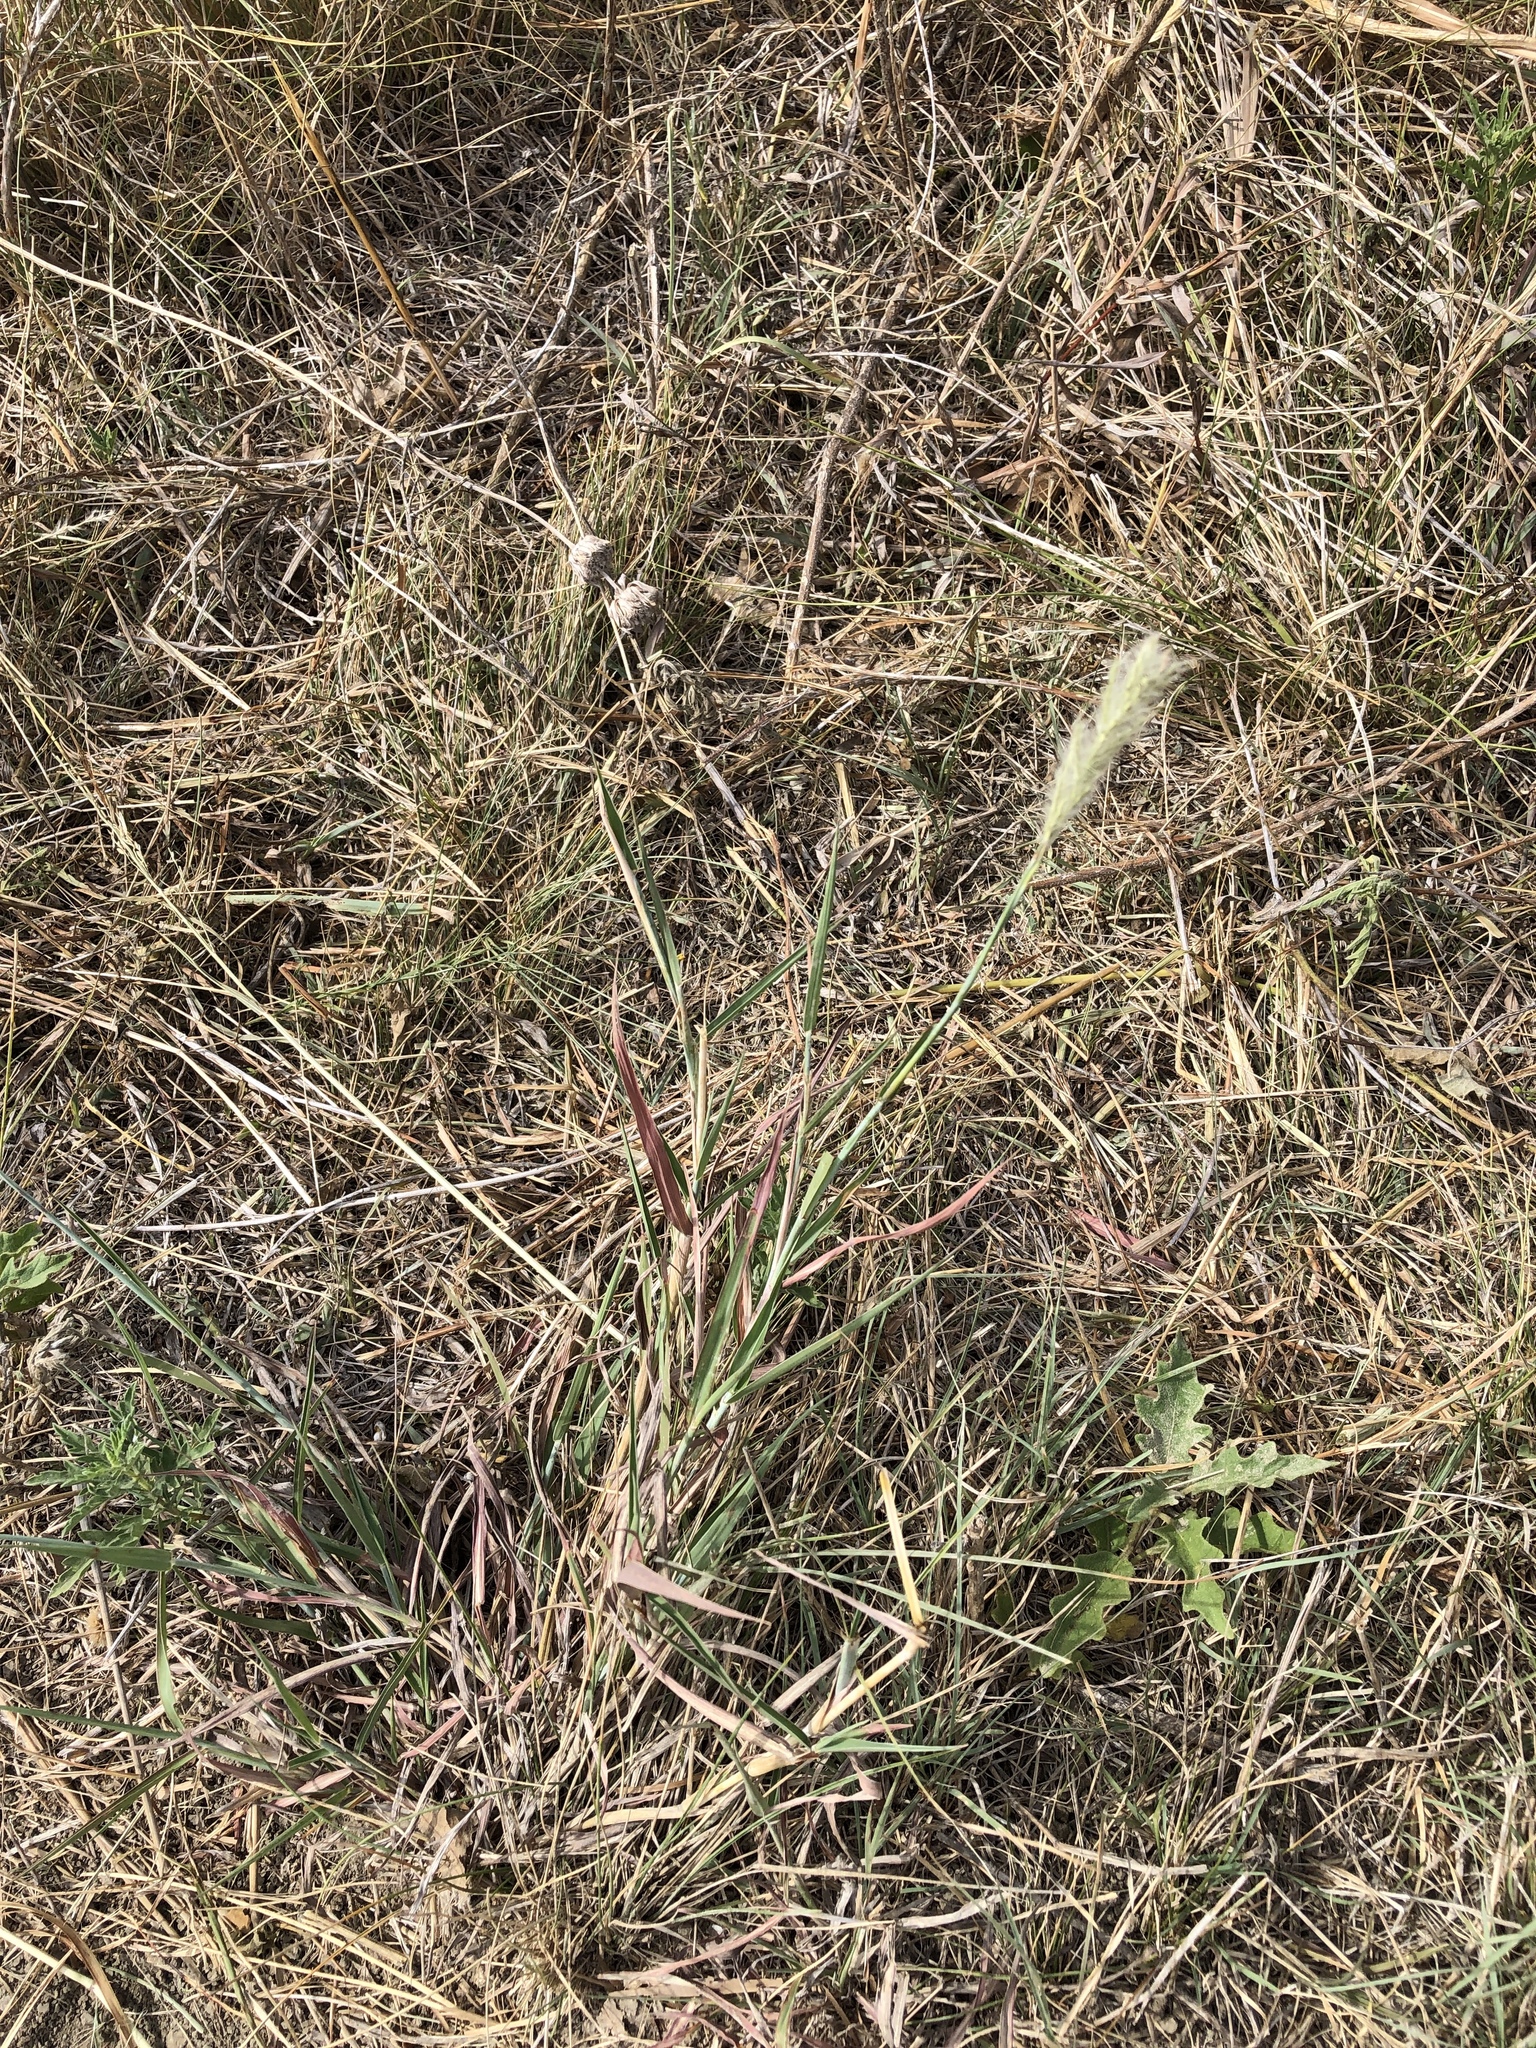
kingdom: Plantae
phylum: Tracheophyta
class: Liliopsida
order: Poales
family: Poaceae
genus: Bothriochloa
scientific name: Bothriochloa torreyana
